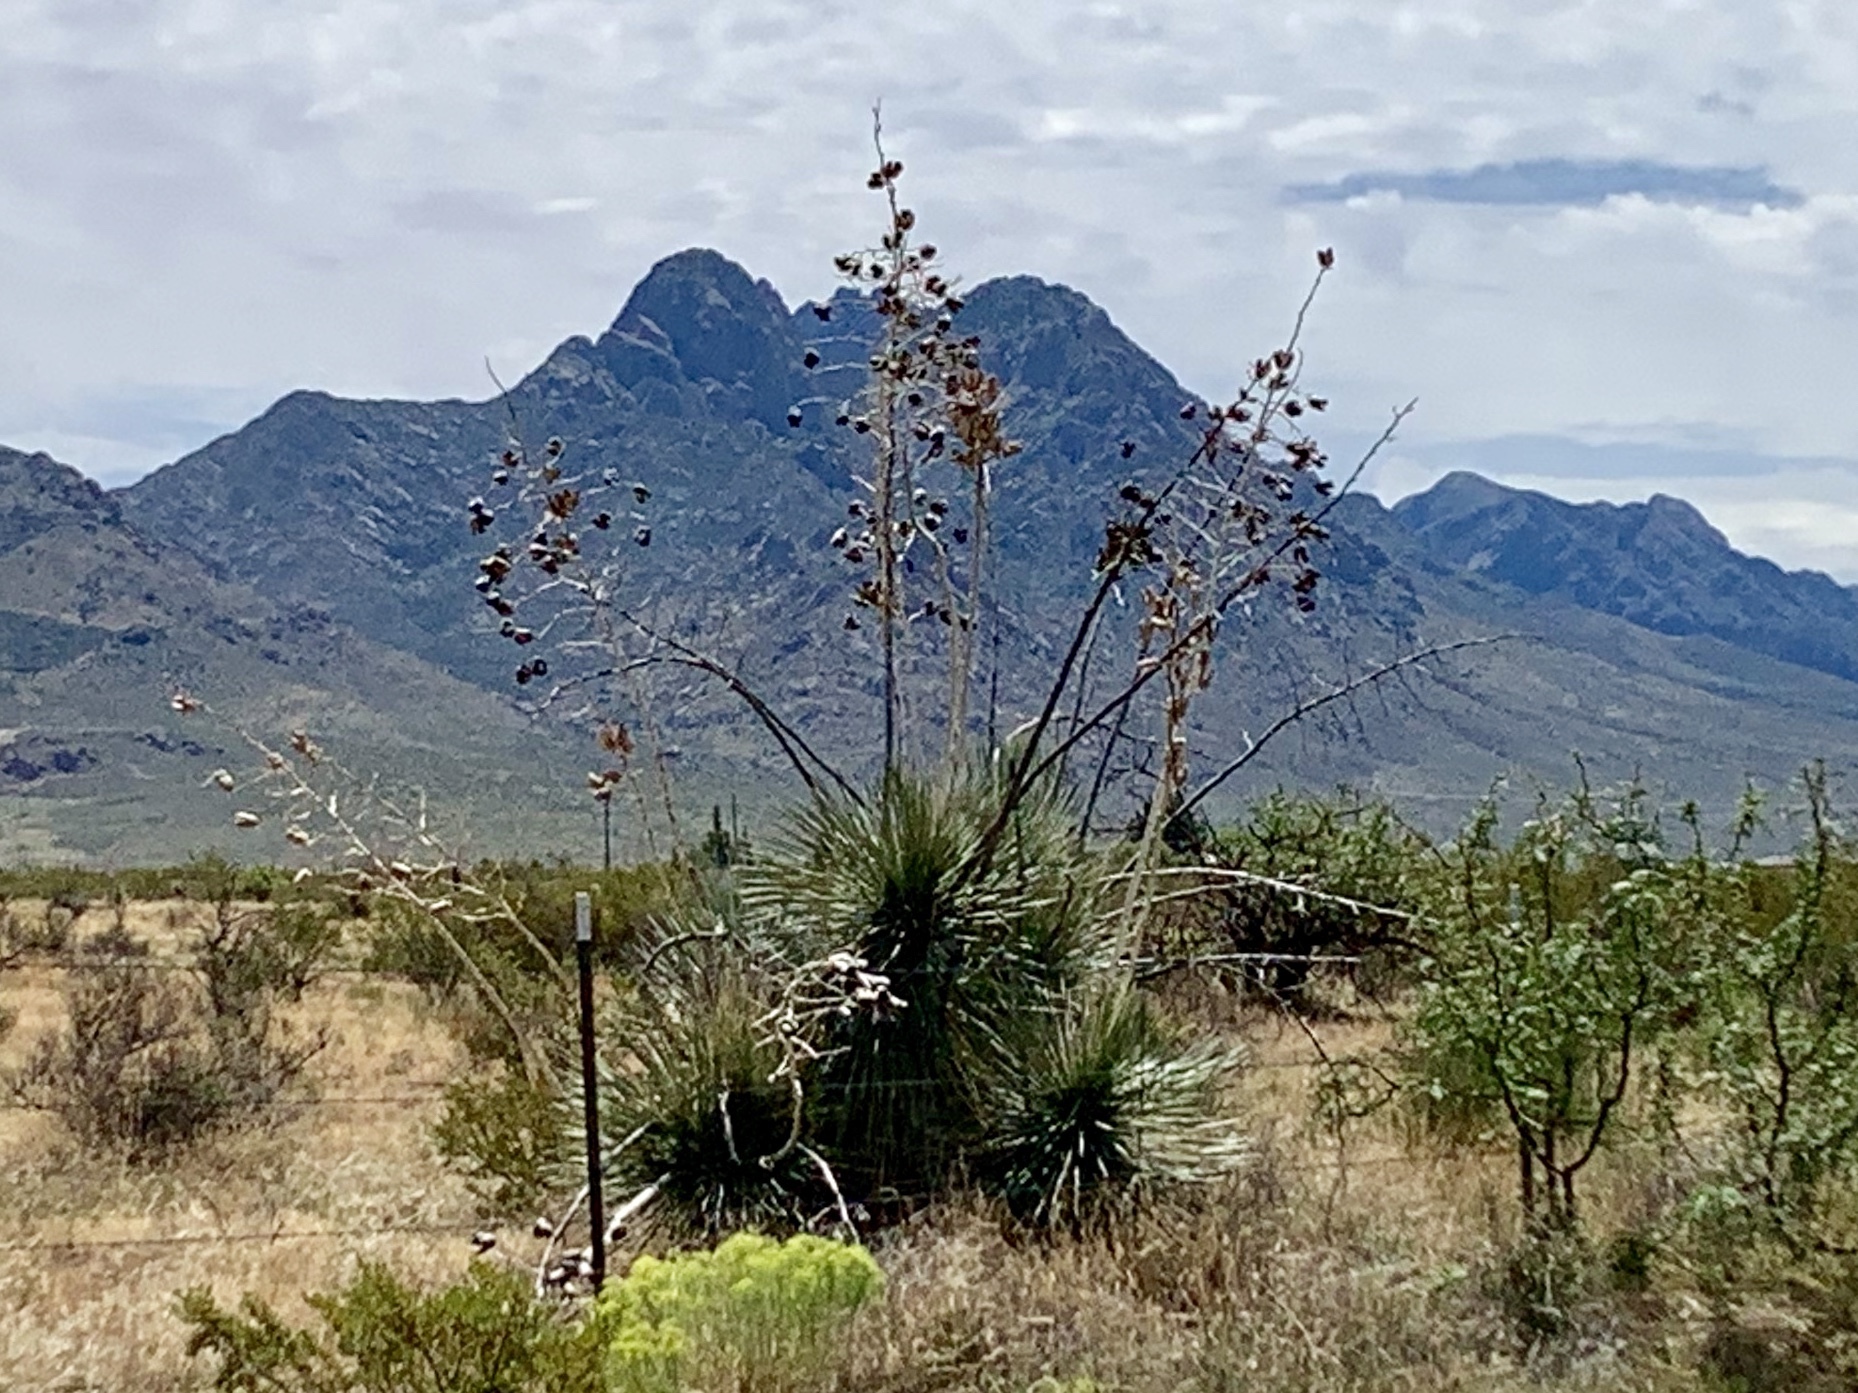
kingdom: Plantae
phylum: Tracheophyta
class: Liliopsida
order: Asparagales
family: Asparagaceae
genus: Yucca
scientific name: Yucca elata
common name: Palmella
